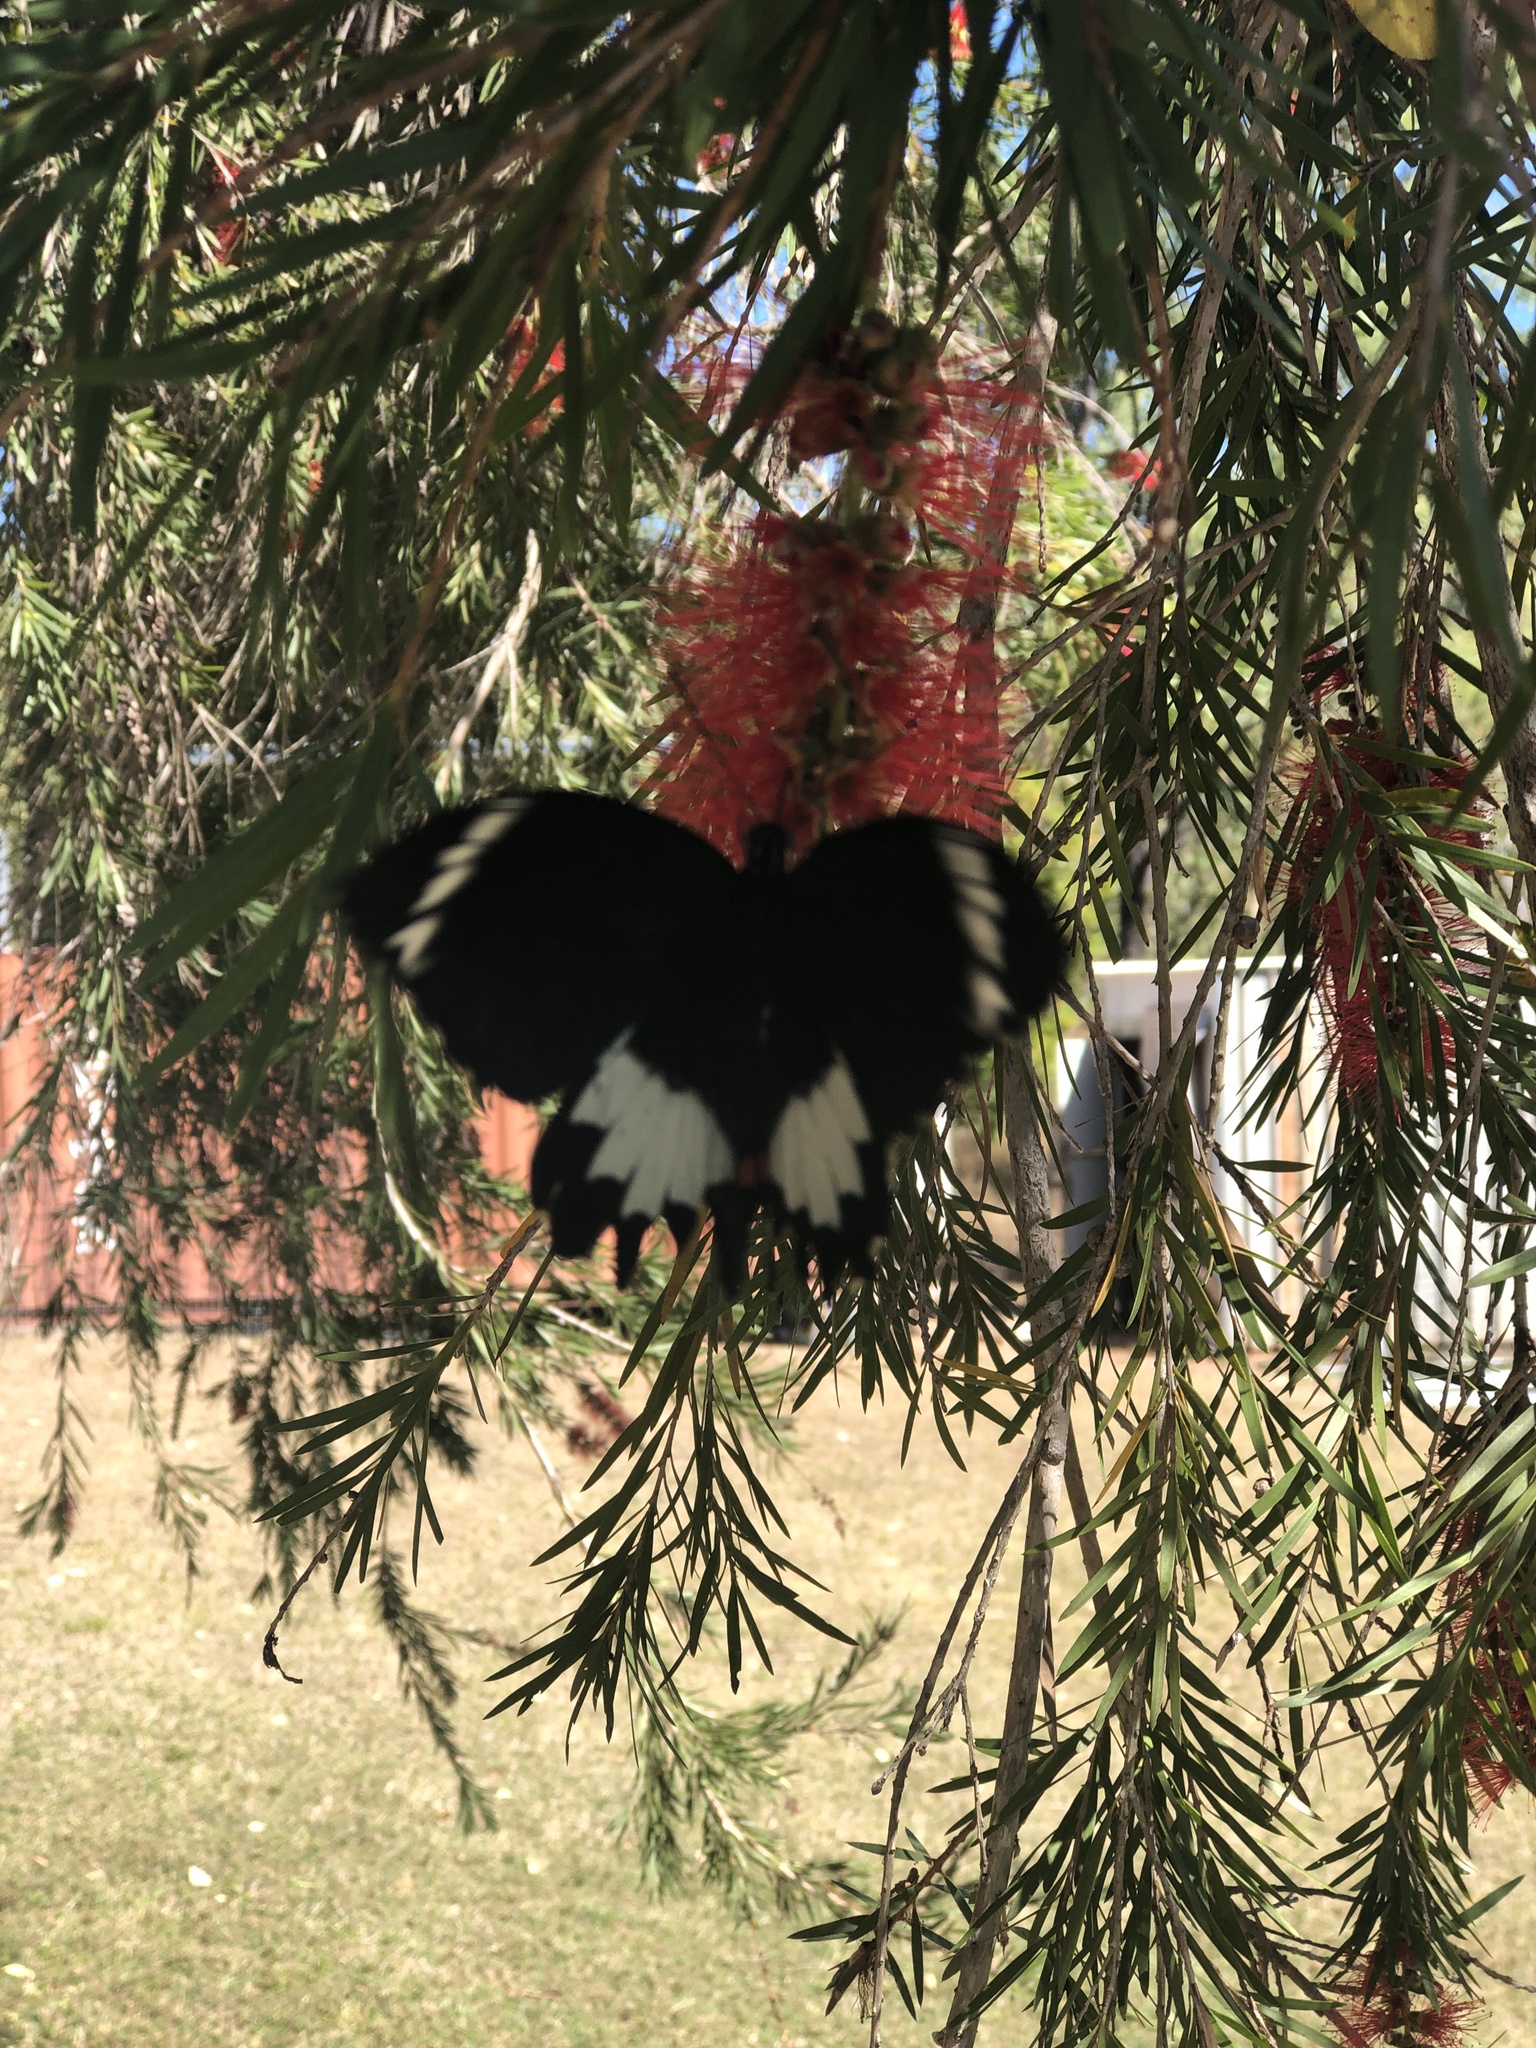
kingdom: Animalia
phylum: Arthropoda
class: Insecta
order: Lepidoptera
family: Papilionidae
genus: Papilio
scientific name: Papilio aegeus
